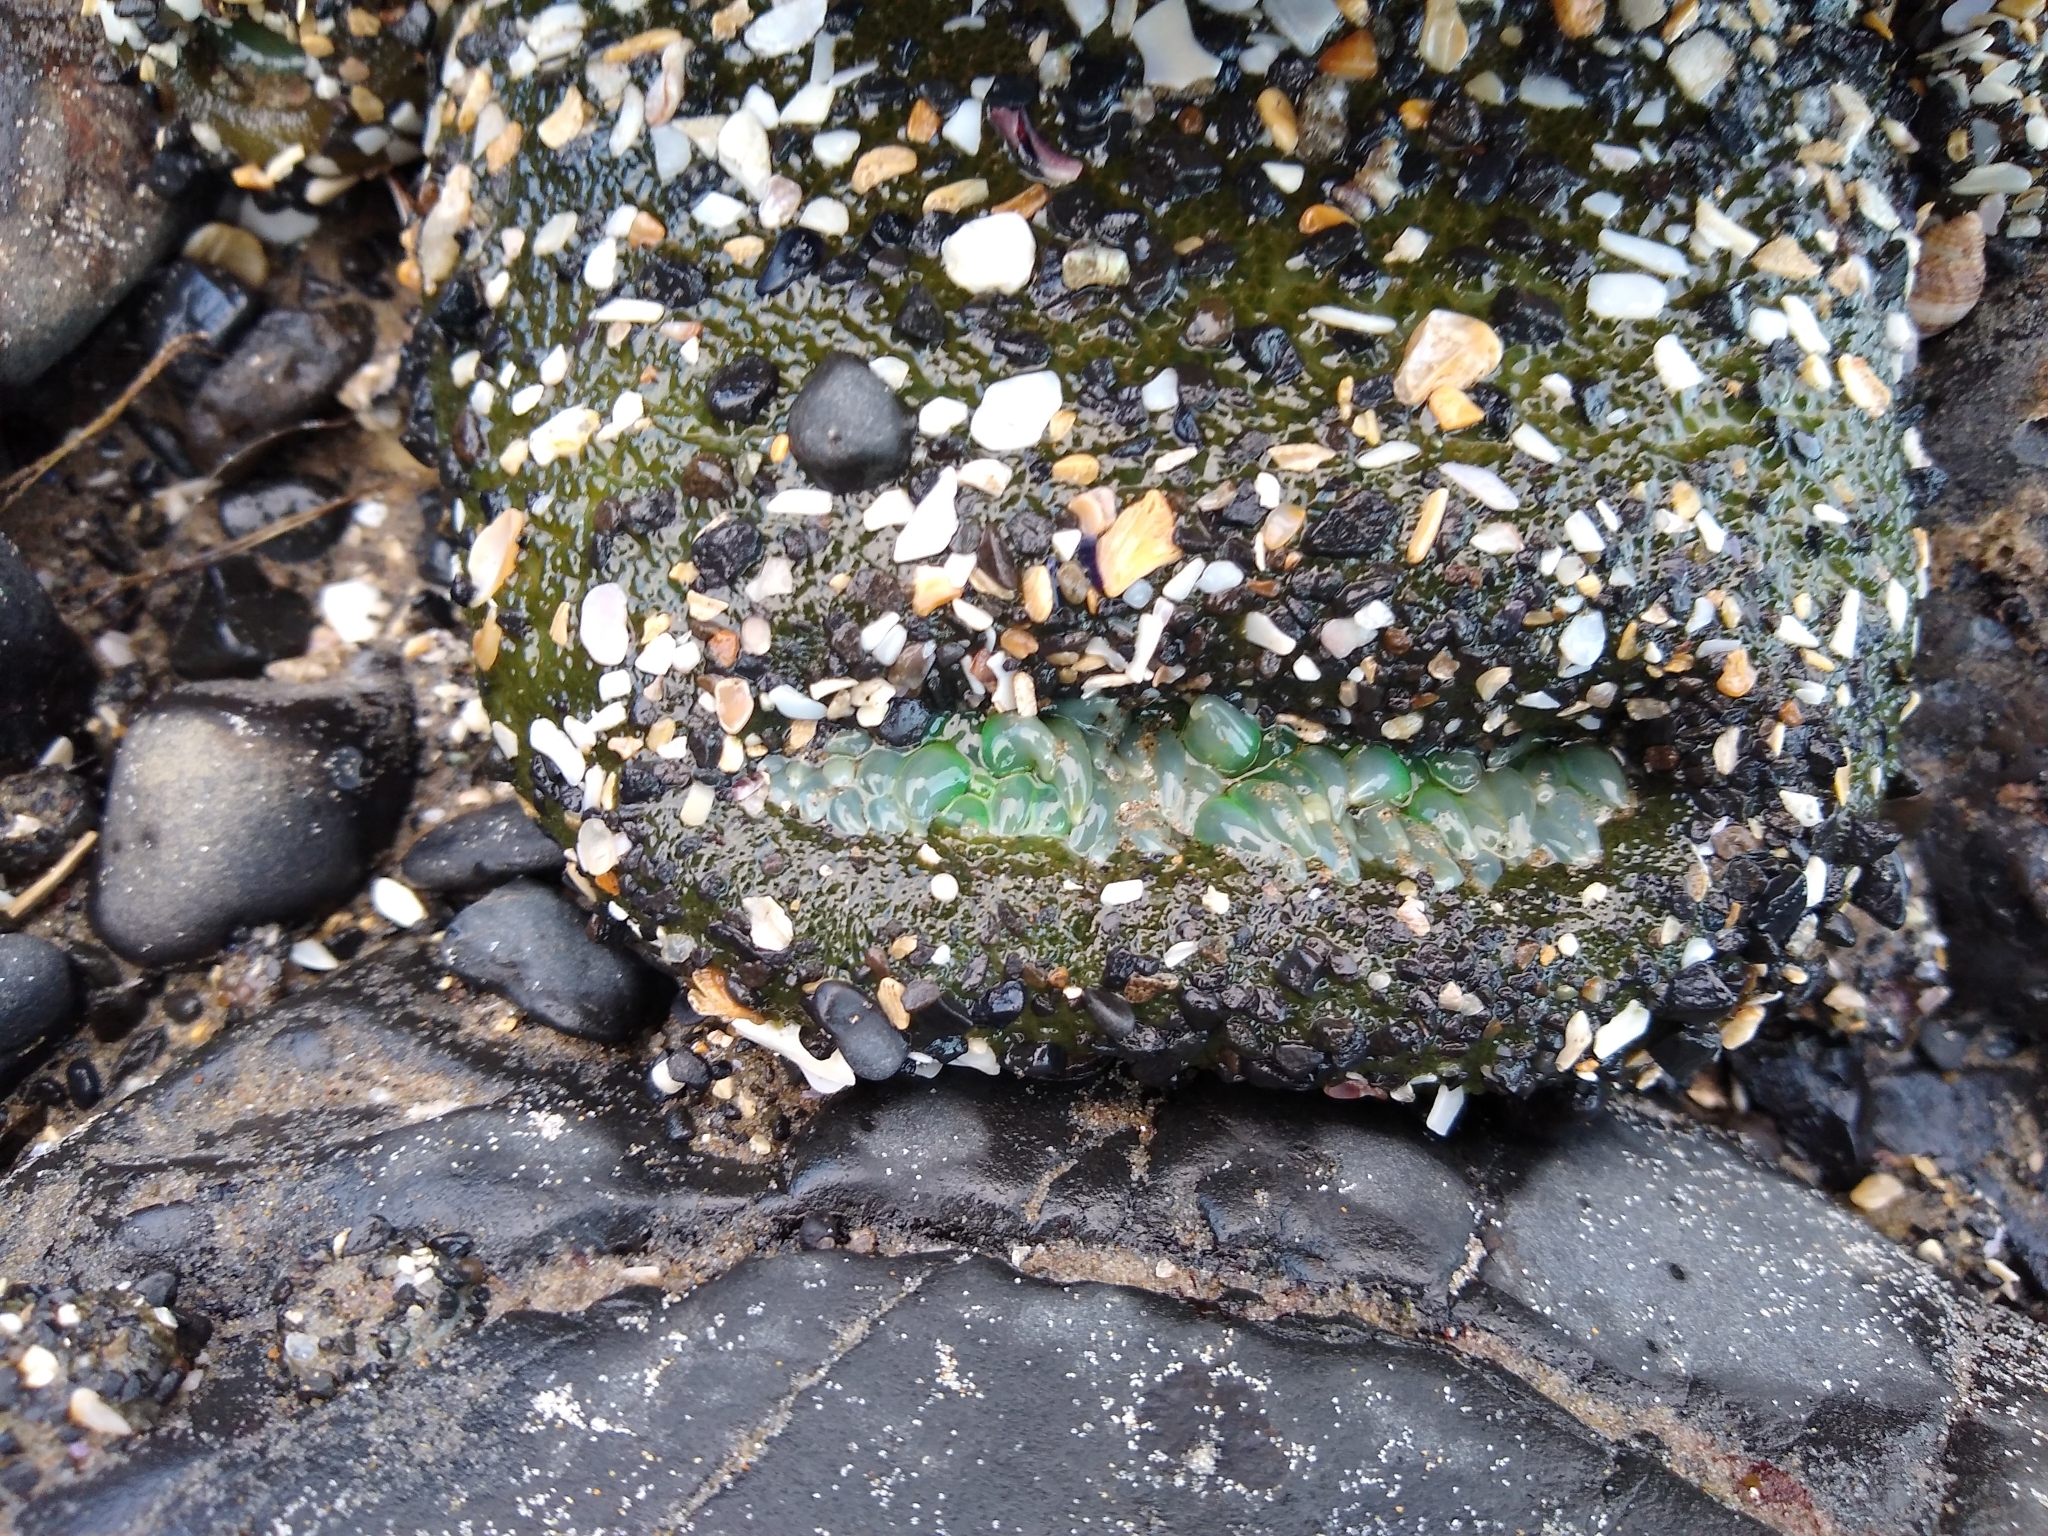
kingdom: Animalia
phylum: Cnidaria
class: Anthozoa
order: Actiniaria
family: Actiniidae
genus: Anthopleura
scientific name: Anthopleura xanthogrammica
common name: Giant green anemone
